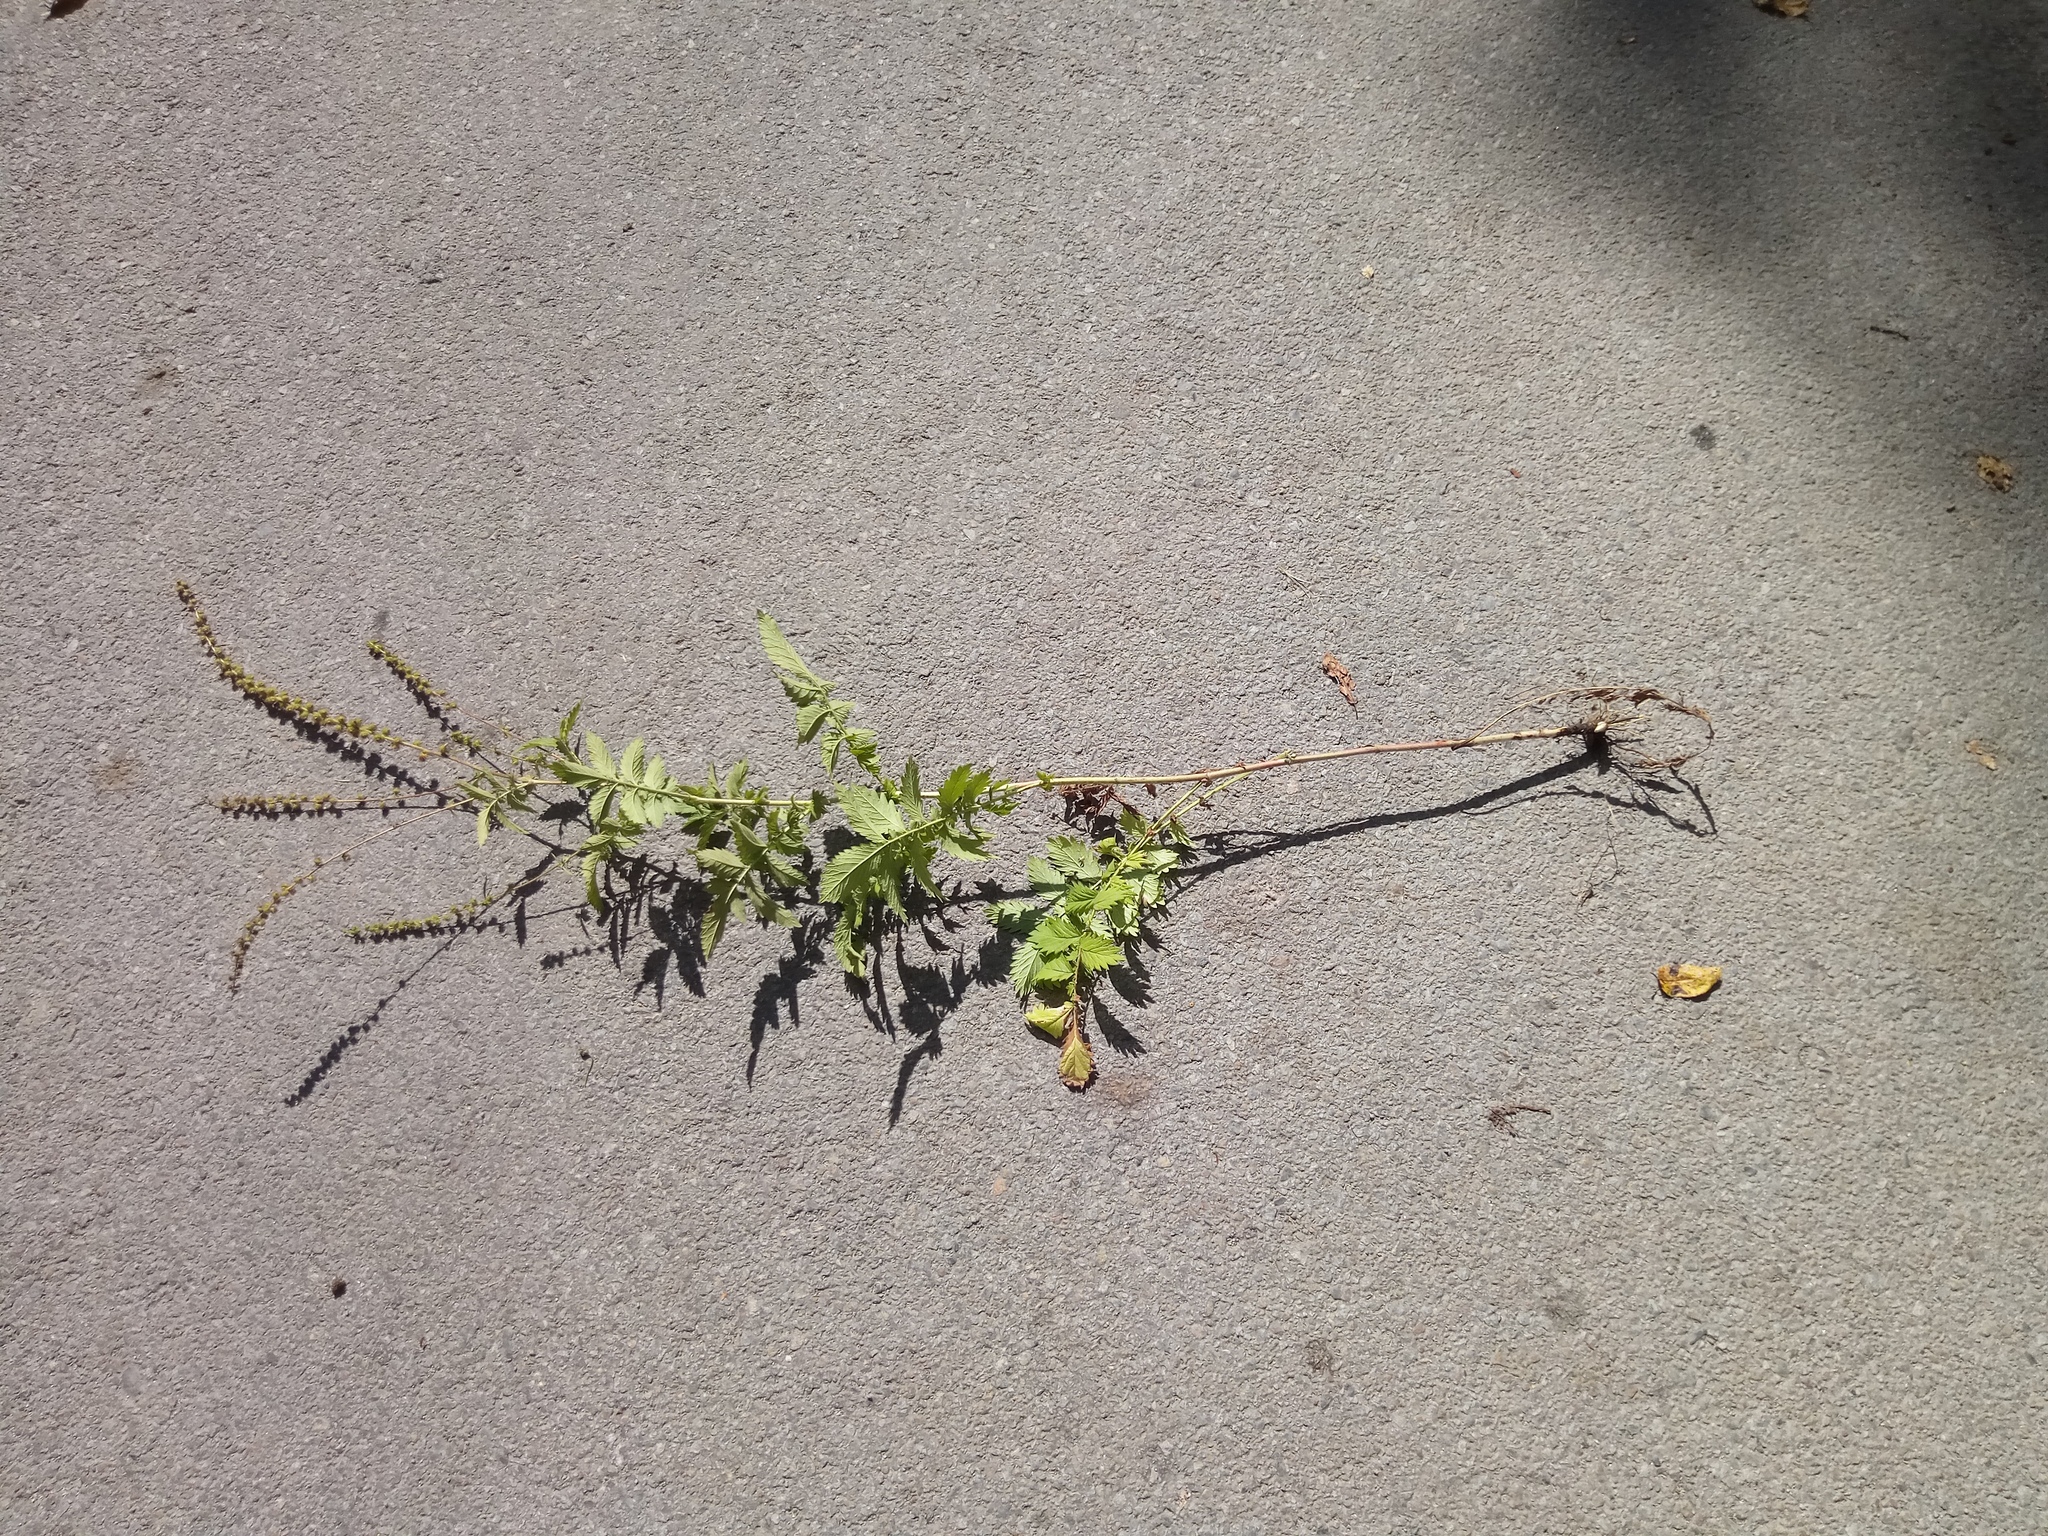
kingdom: Plantae
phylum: Tracheophyta
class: Magnoliopsida
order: Rosales
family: Rosaceae
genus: Agrimonia
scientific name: Agrimonia procera
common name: Fragrant agrimony
